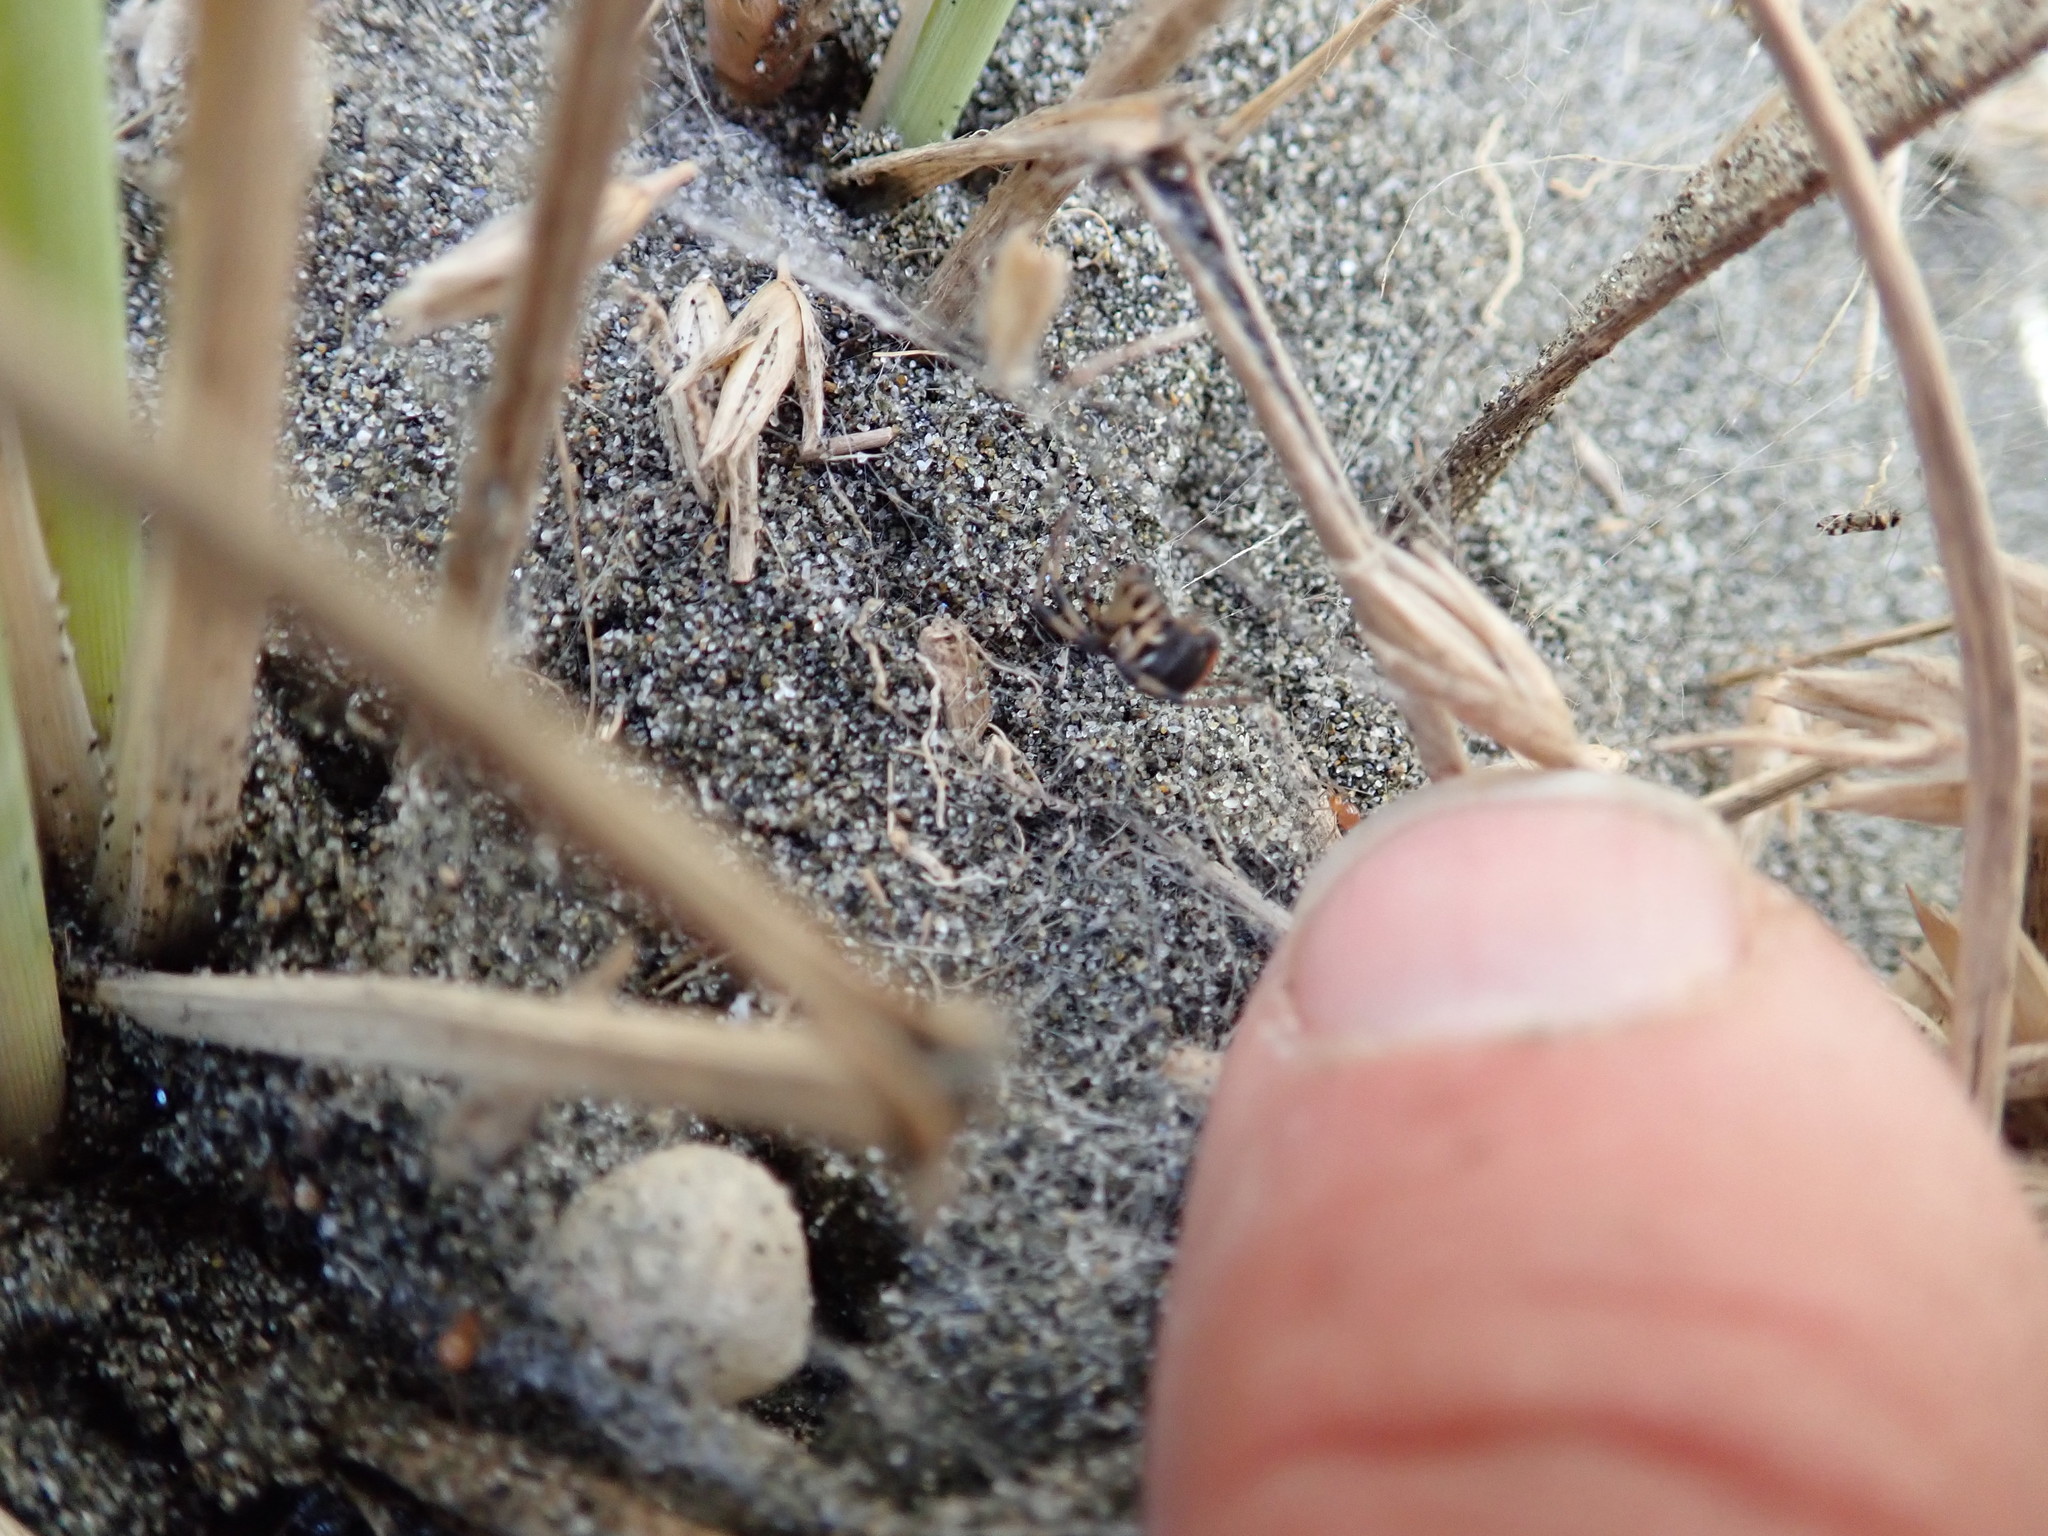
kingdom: Animalia
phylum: Arthropoda
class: Arachnida
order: Araneae
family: Theridiidae
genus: Latrodectus
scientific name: Latrodectus katipo
